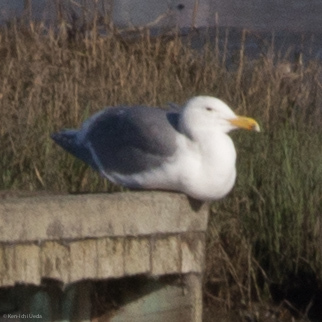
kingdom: Animalia
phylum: Chordata
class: Aves
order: Charadriiformes
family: Laridae
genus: Larus
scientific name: Larus glaucescens
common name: Glaucous-winged gull
